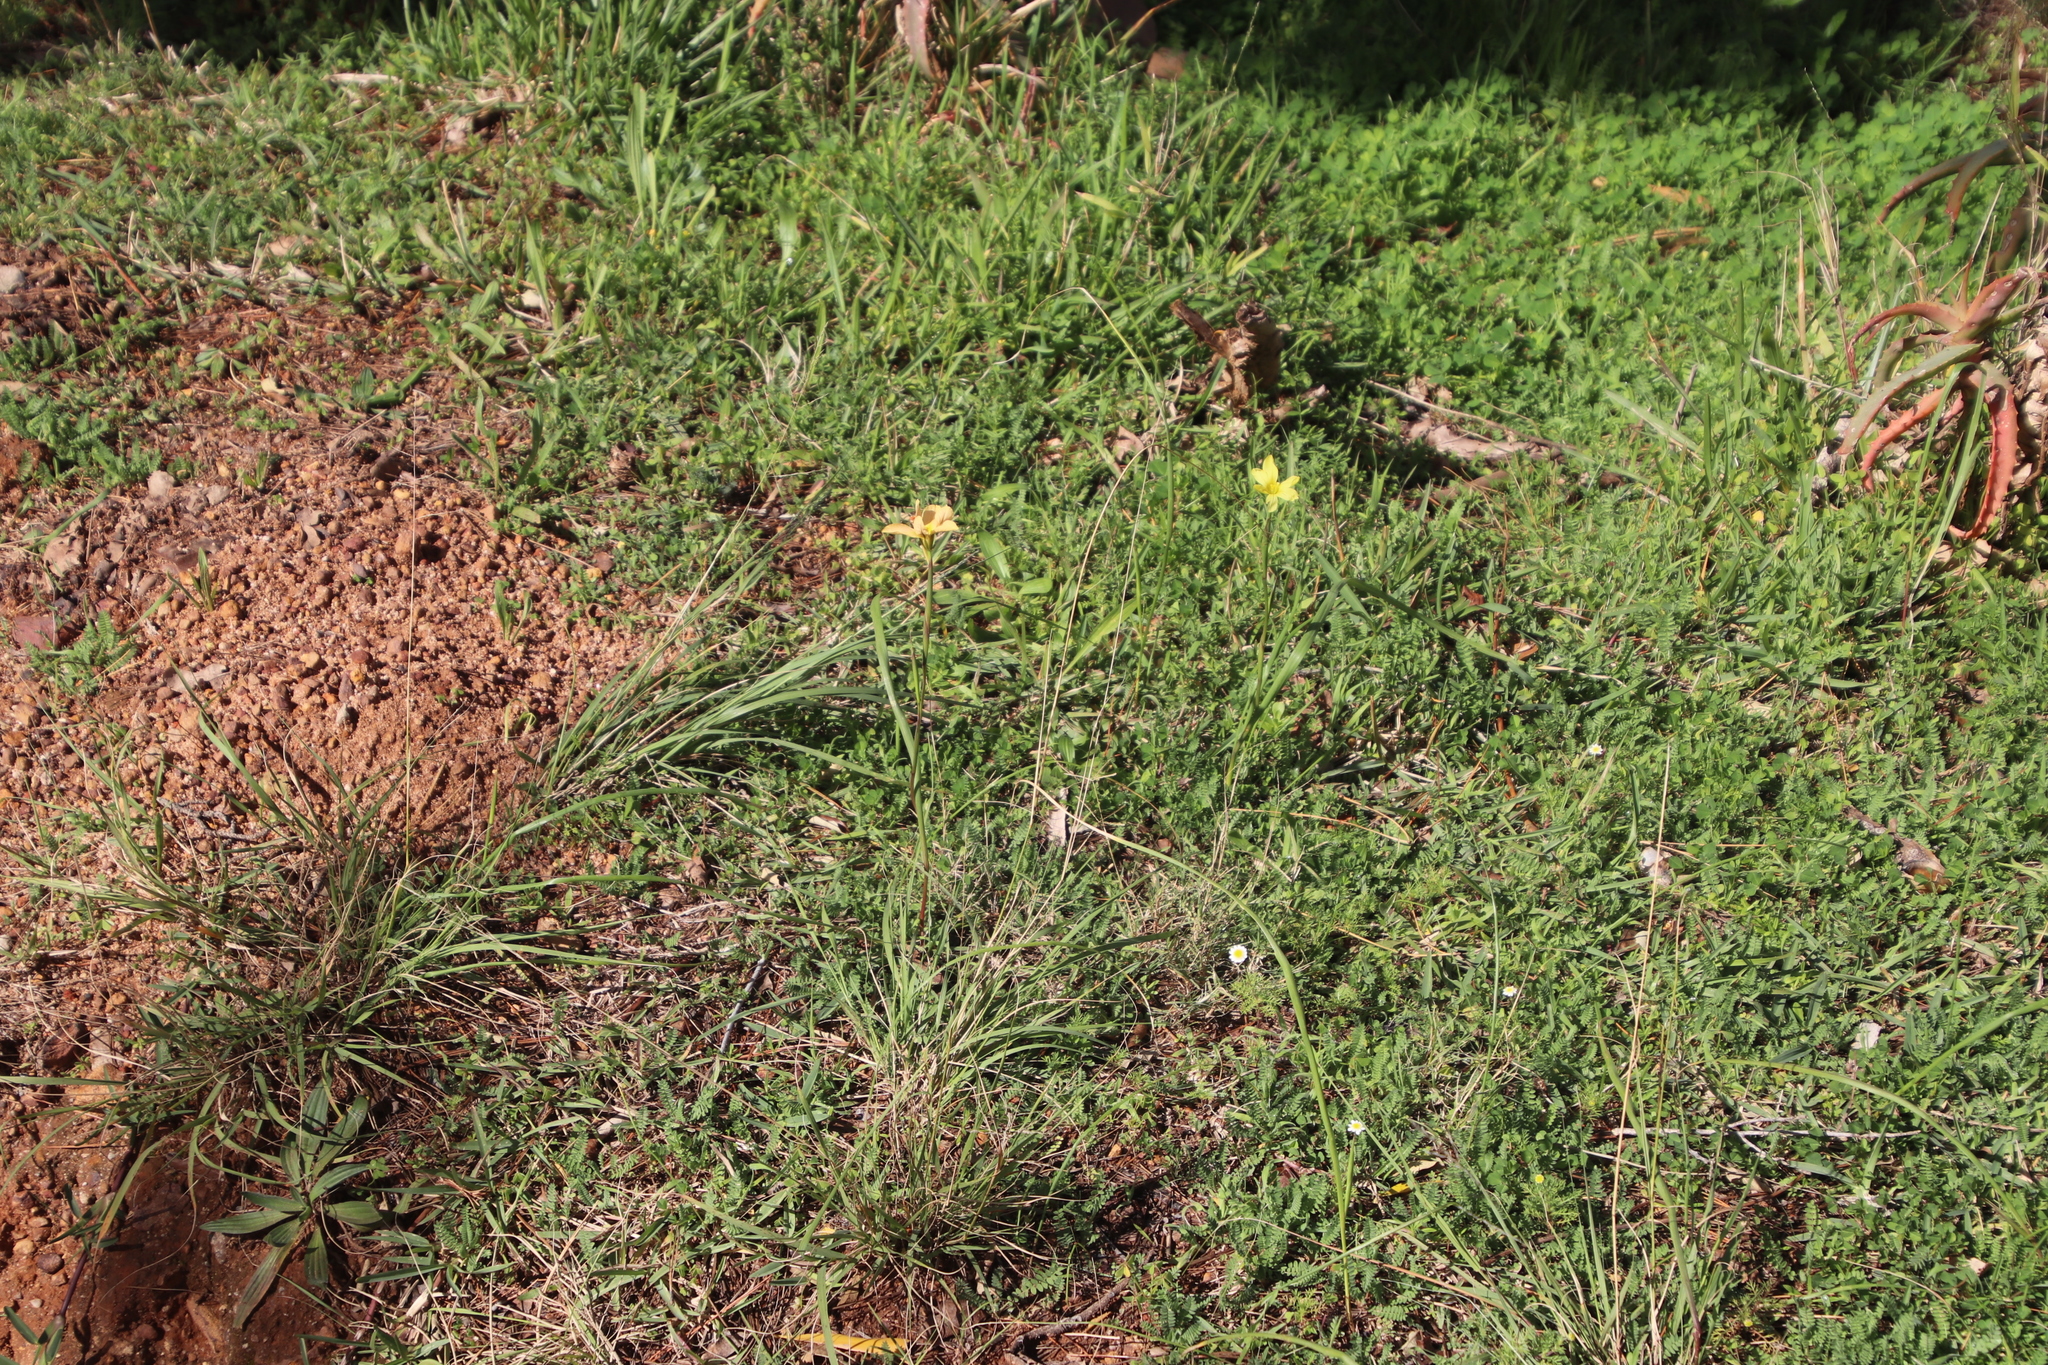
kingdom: Plantae
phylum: Tracheophyta
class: Liliopsida
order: Asparagales
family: Iridaceae
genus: Moraea
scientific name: Moraea collina
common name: Cape-tulip
